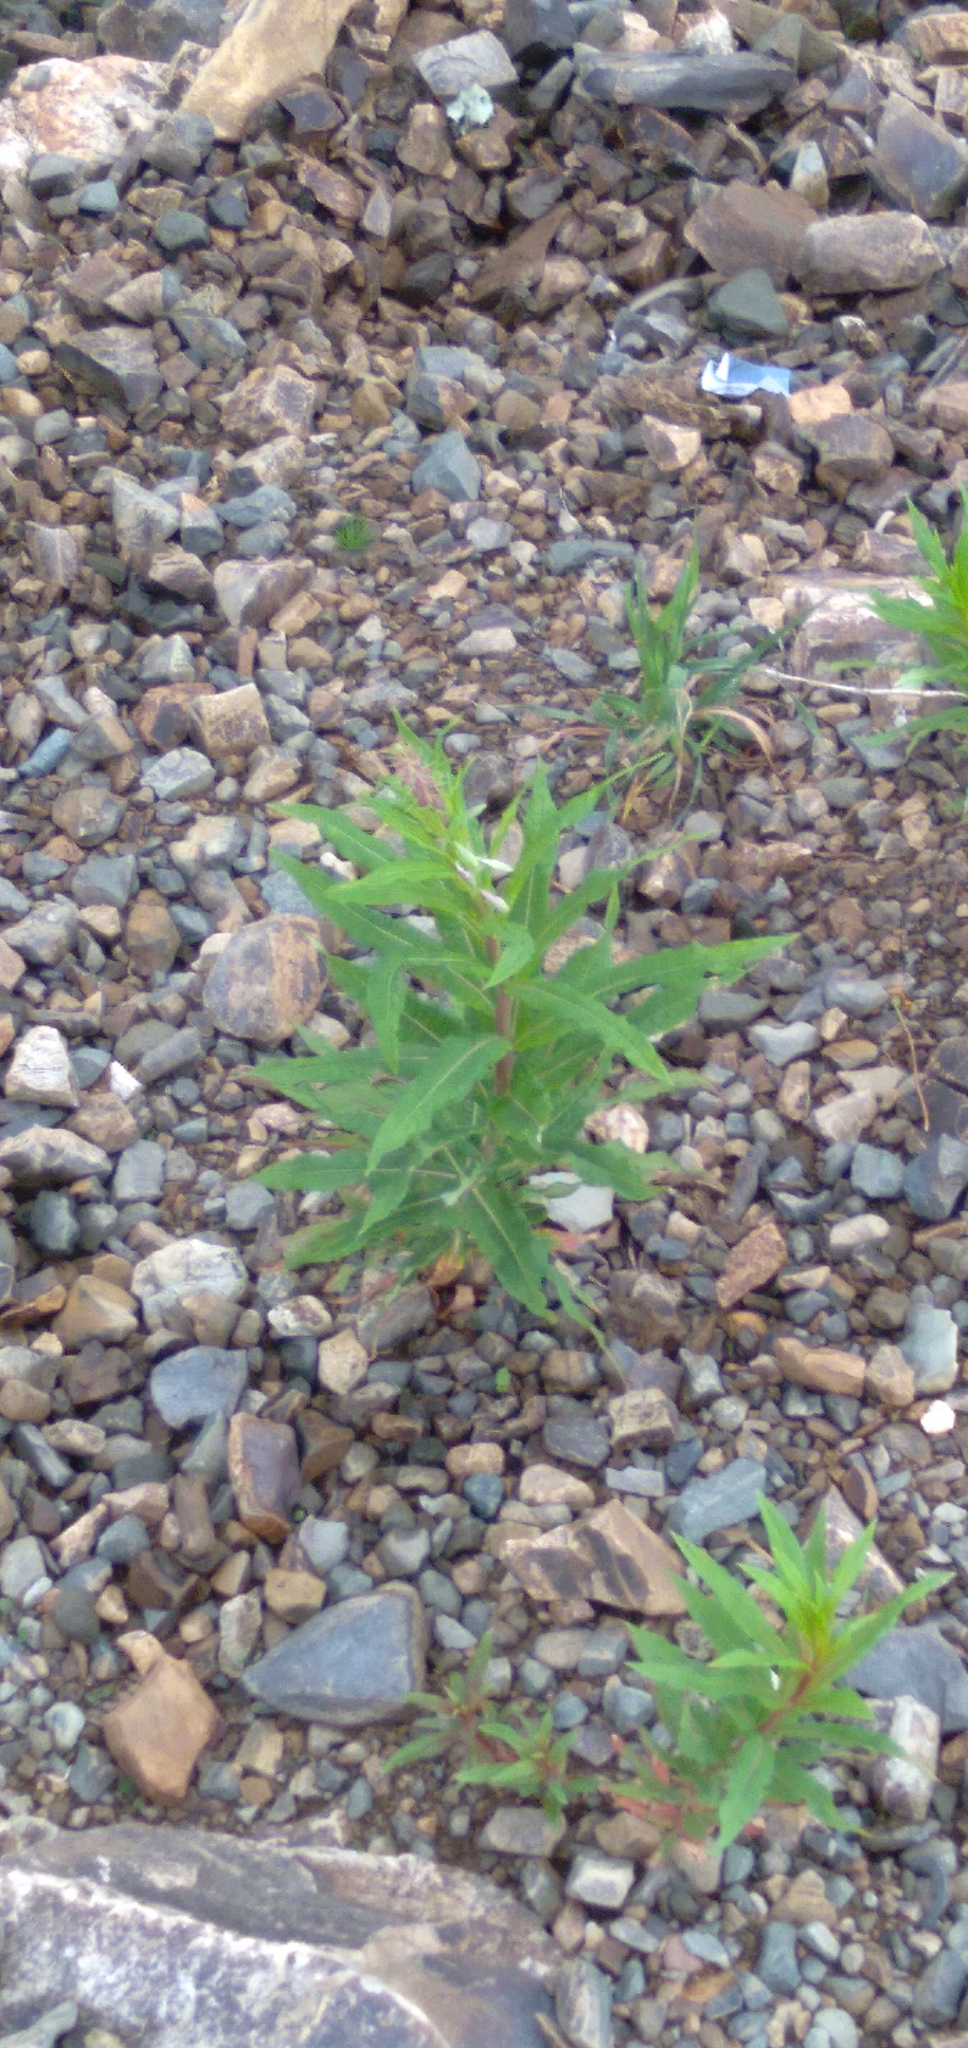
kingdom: Plantae
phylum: Tracheophyta
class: Magnoliopsida
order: Myrtales
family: Onagraceae
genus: Chamaenerion
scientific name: Chamaenerion angustifolium
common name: Fireweed
